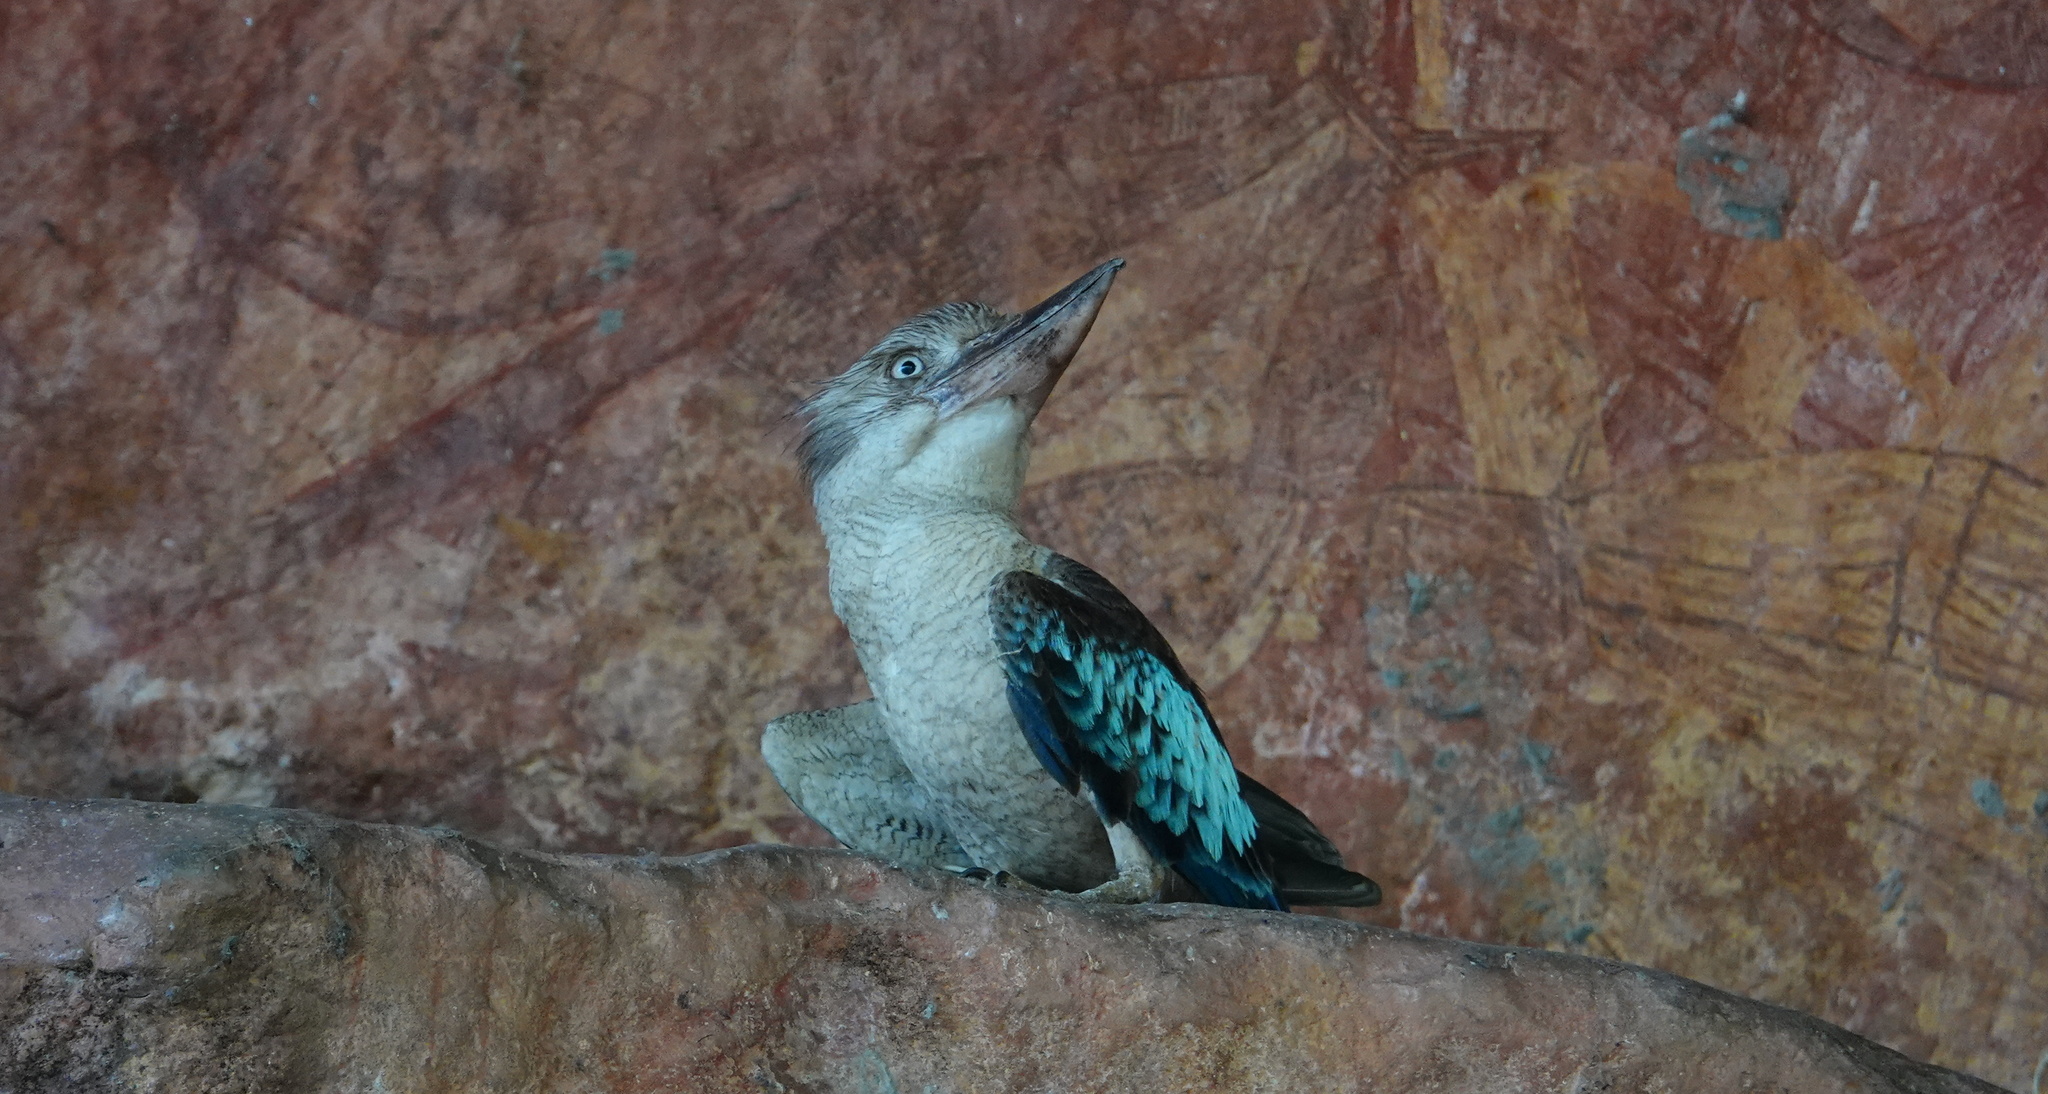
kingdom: Animalia
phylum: Chordata
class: Aves
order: Coraciiformes
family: Alcedinidae
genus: Dacelo
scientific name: Dacelo leachii
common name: Blue-winged kookaburra
